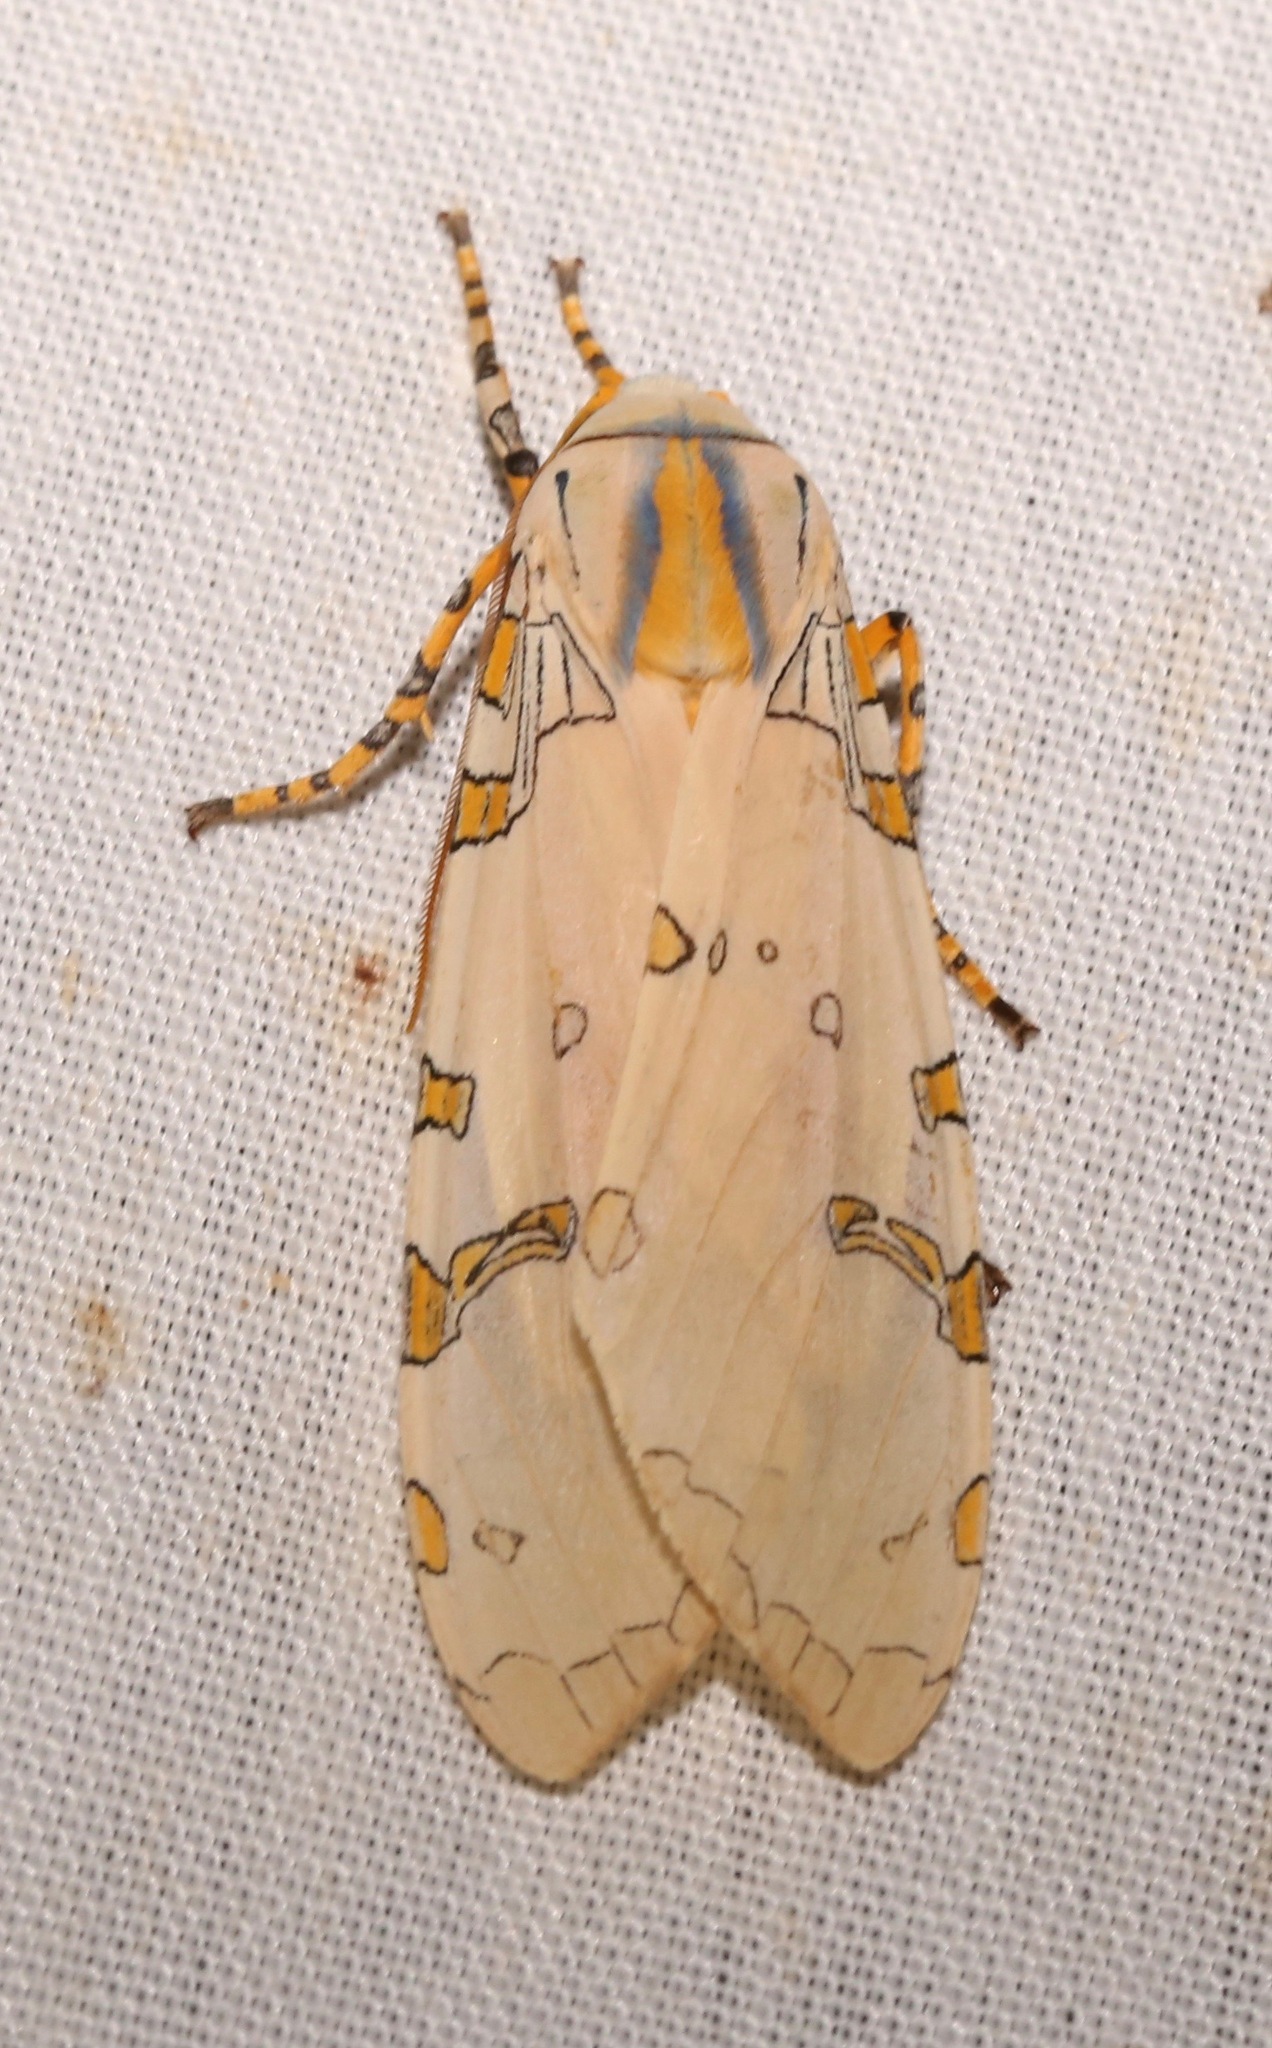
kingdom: Animalia
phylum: Arthropoda
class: Insecta
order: Lepidoptera
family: Erebidae
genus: Halysidota
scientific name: Halysidota davisii
